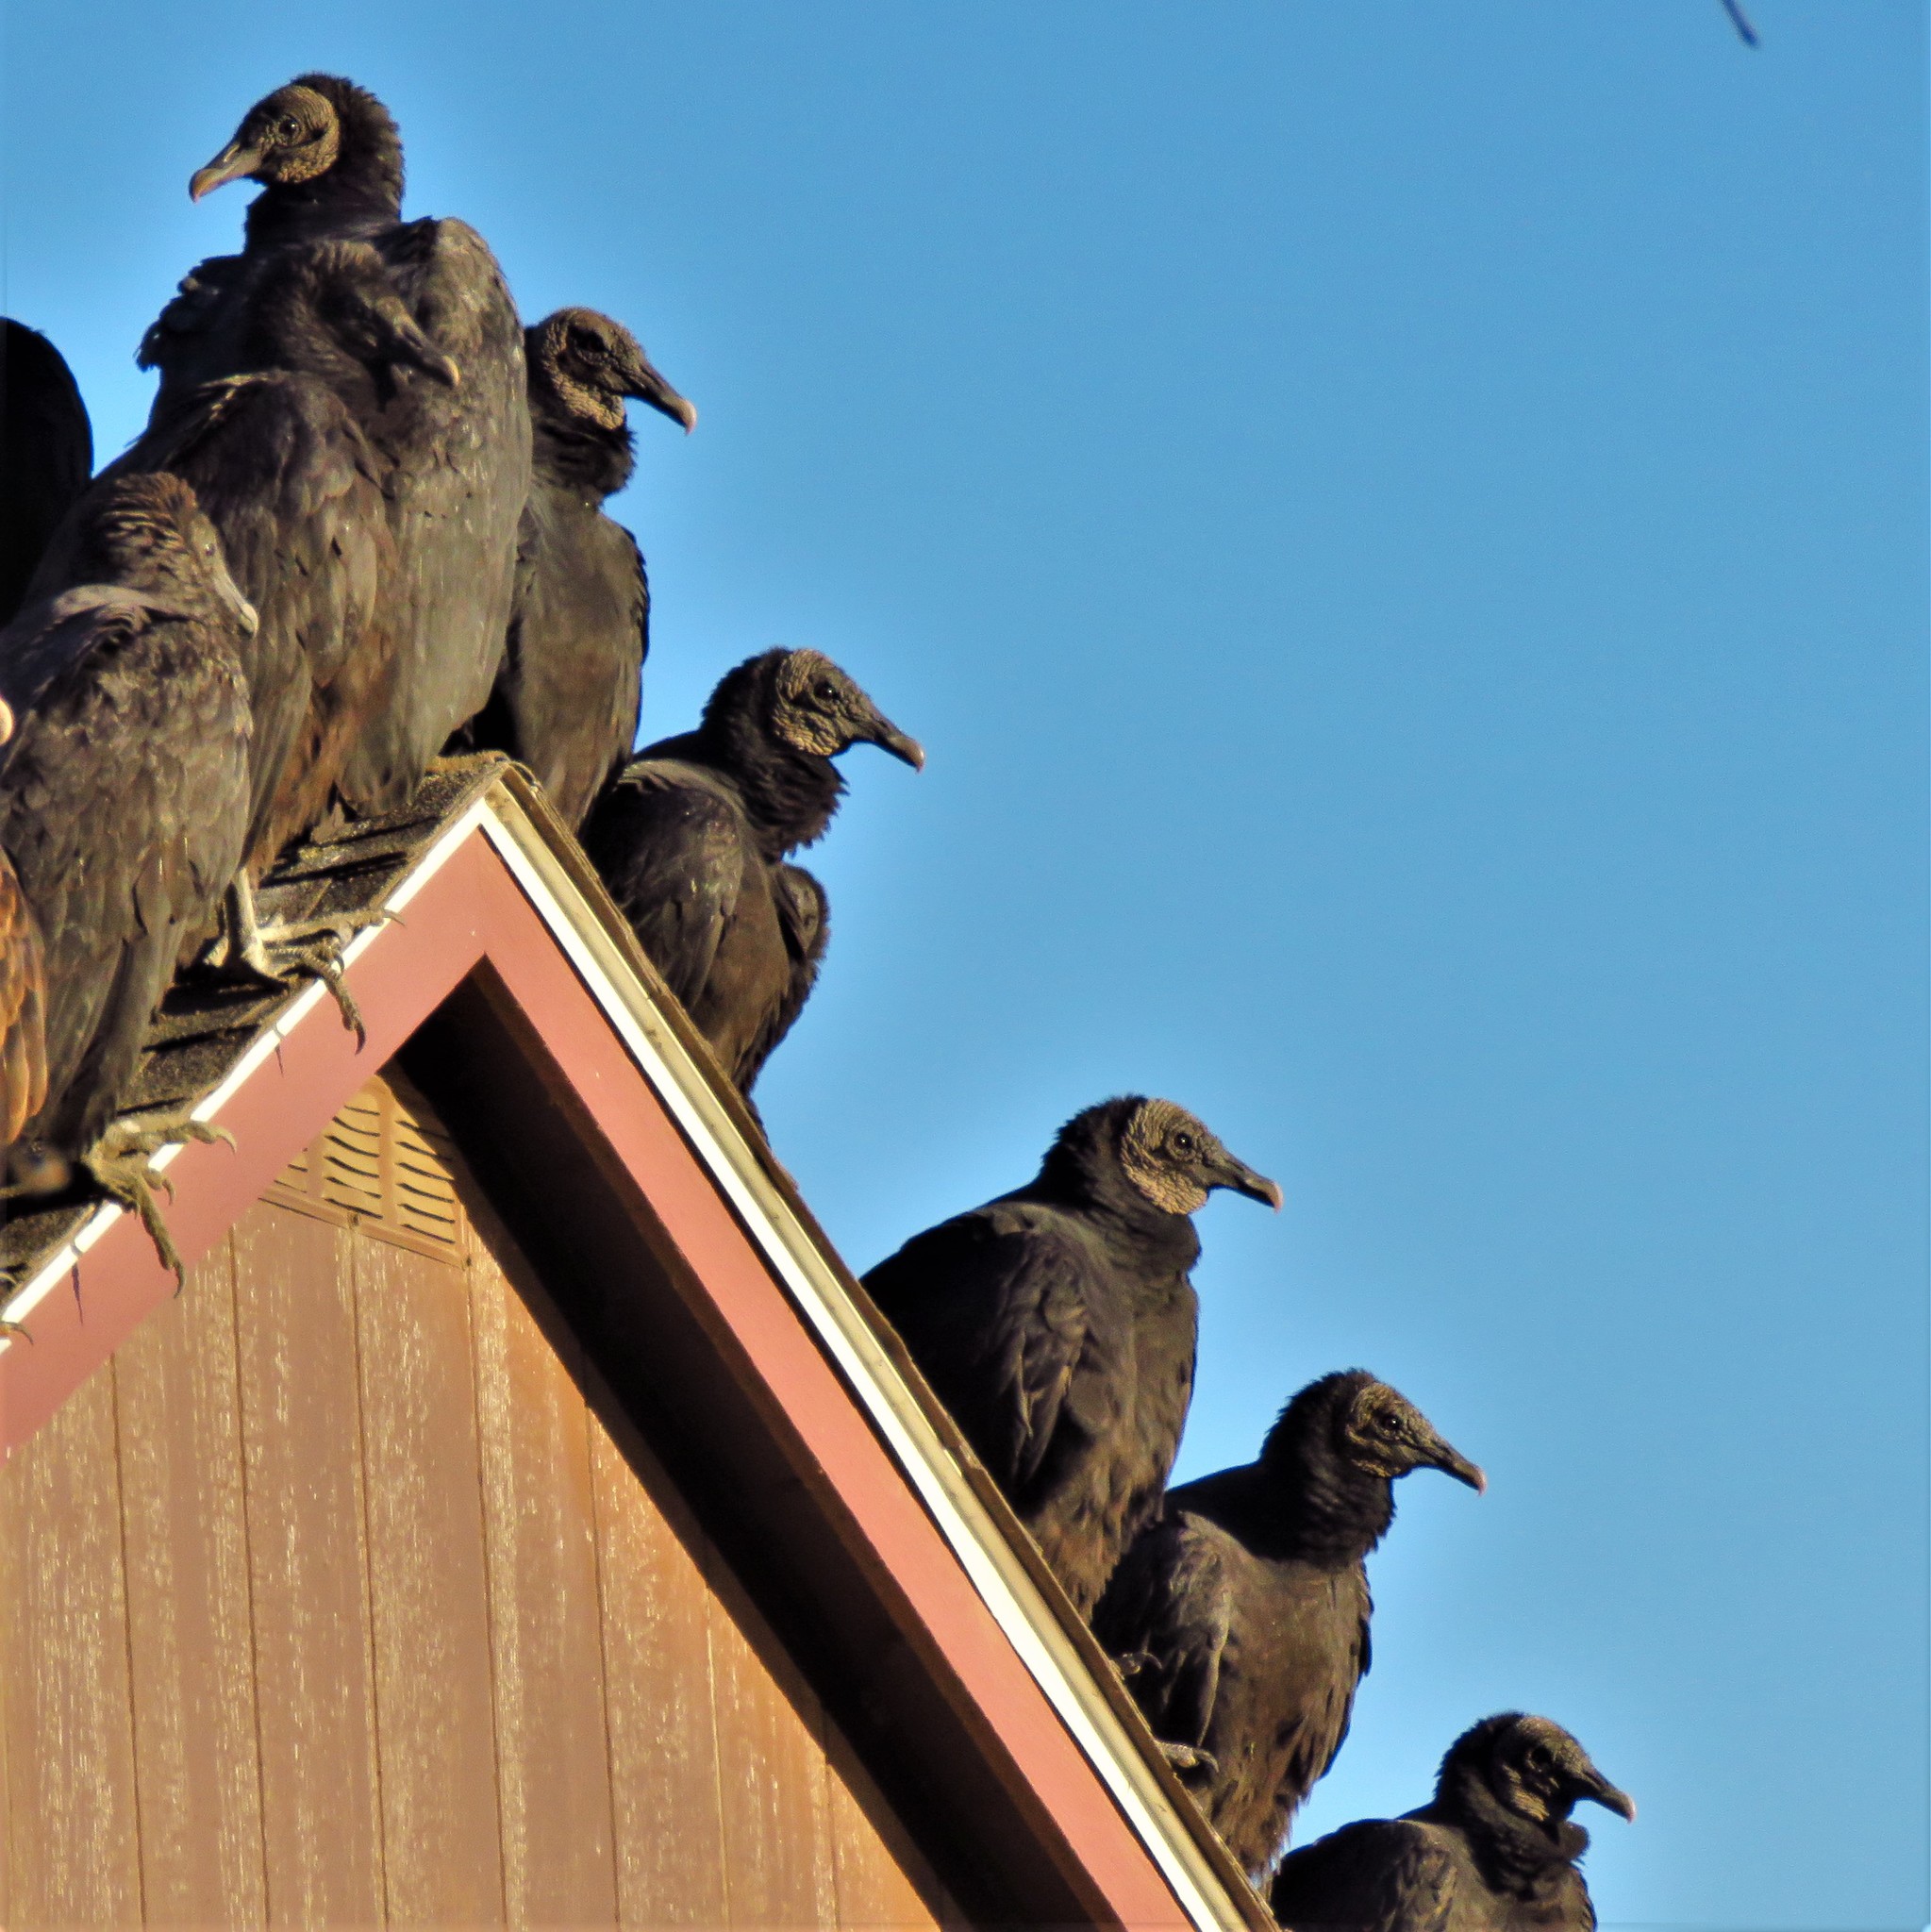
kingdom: Animalia
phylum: Chordata
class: Aves
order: Accipitriformes
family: Cathartidae
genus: Coragyps
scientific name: Coragyps atratus
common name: Black vulture
